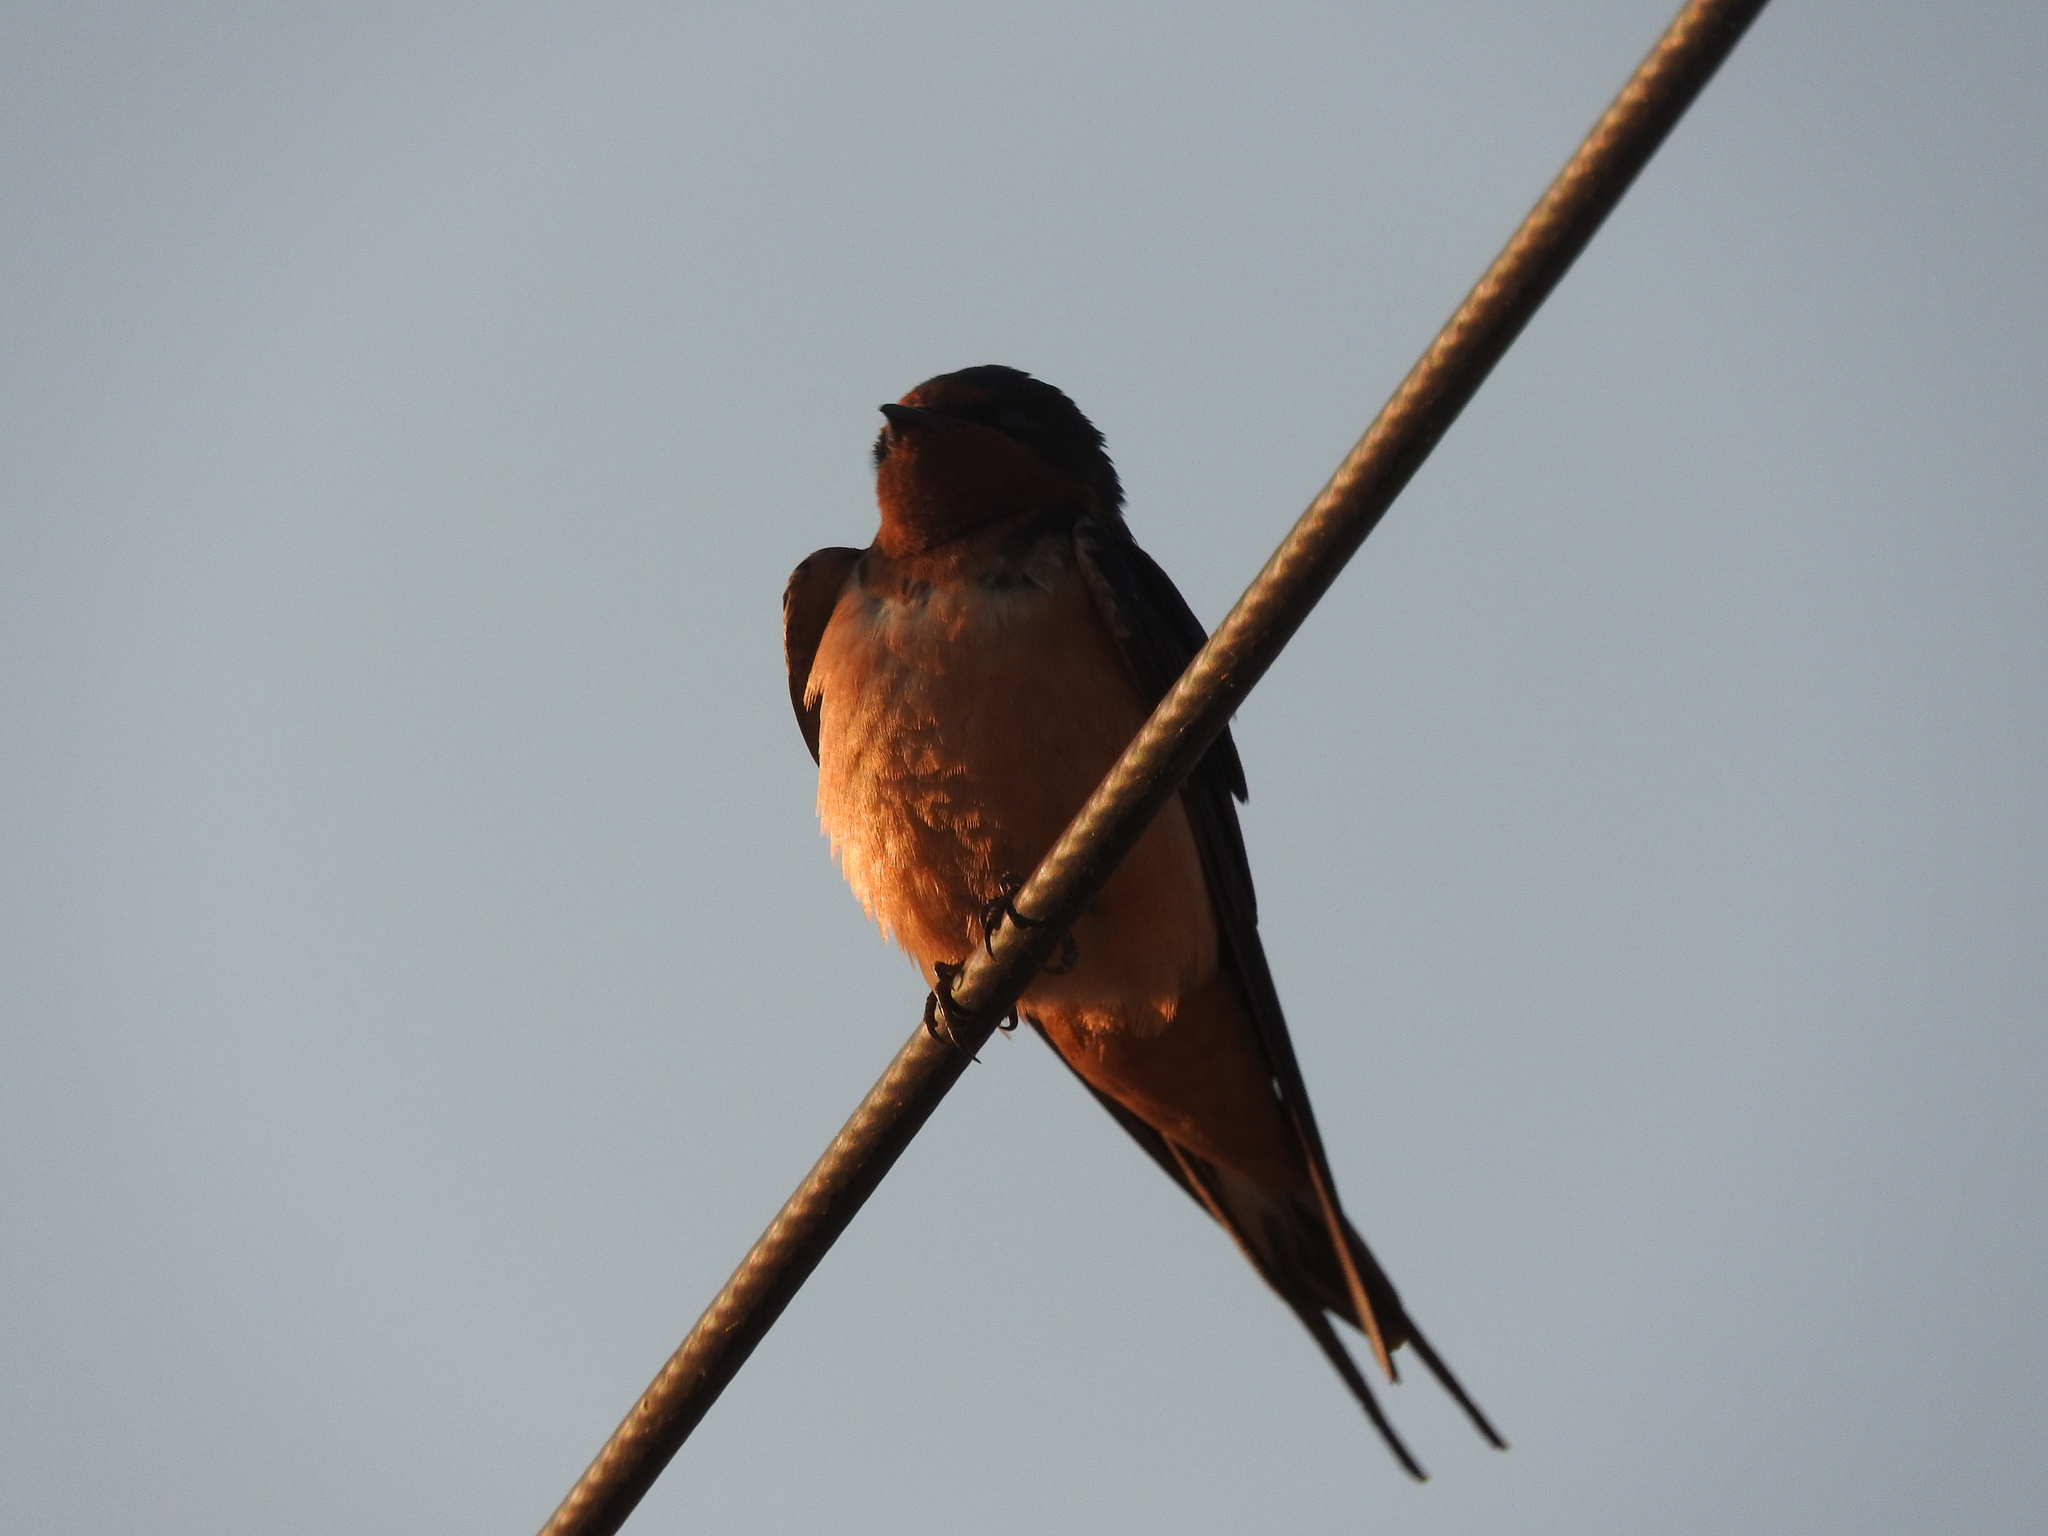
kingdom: Animalia
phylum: Chordata
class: Aves
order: Passeriformes
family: Hirundinidae
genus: Hirundo
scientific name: Hirundo rustica
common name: Barn swallow
